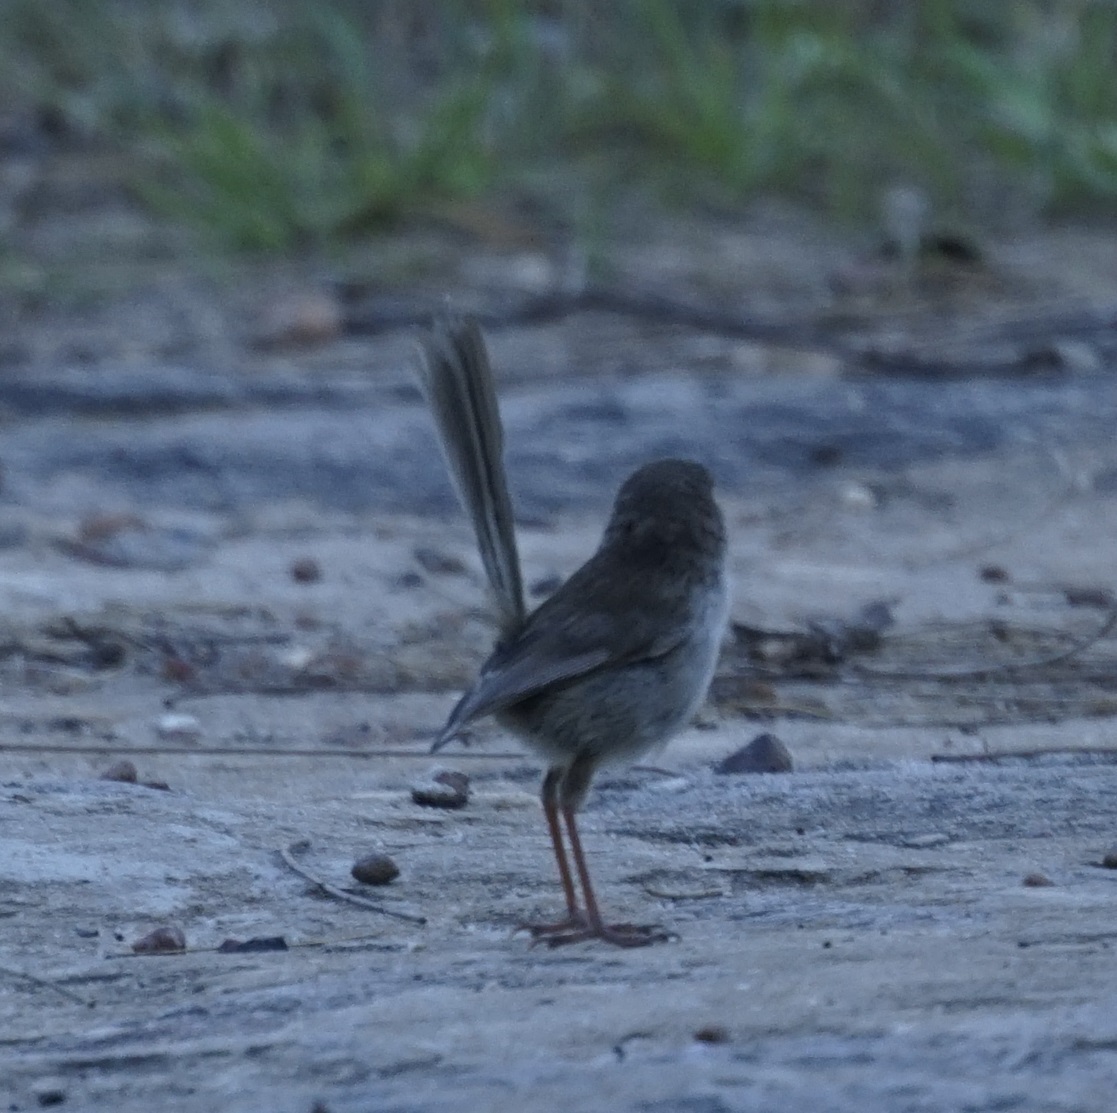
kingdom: Animalia
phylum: Chordata
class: Aves
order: Passeriformes
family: Maluridae
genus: Malurus
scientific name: Malurus cyaneus
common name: Superb fairywren
